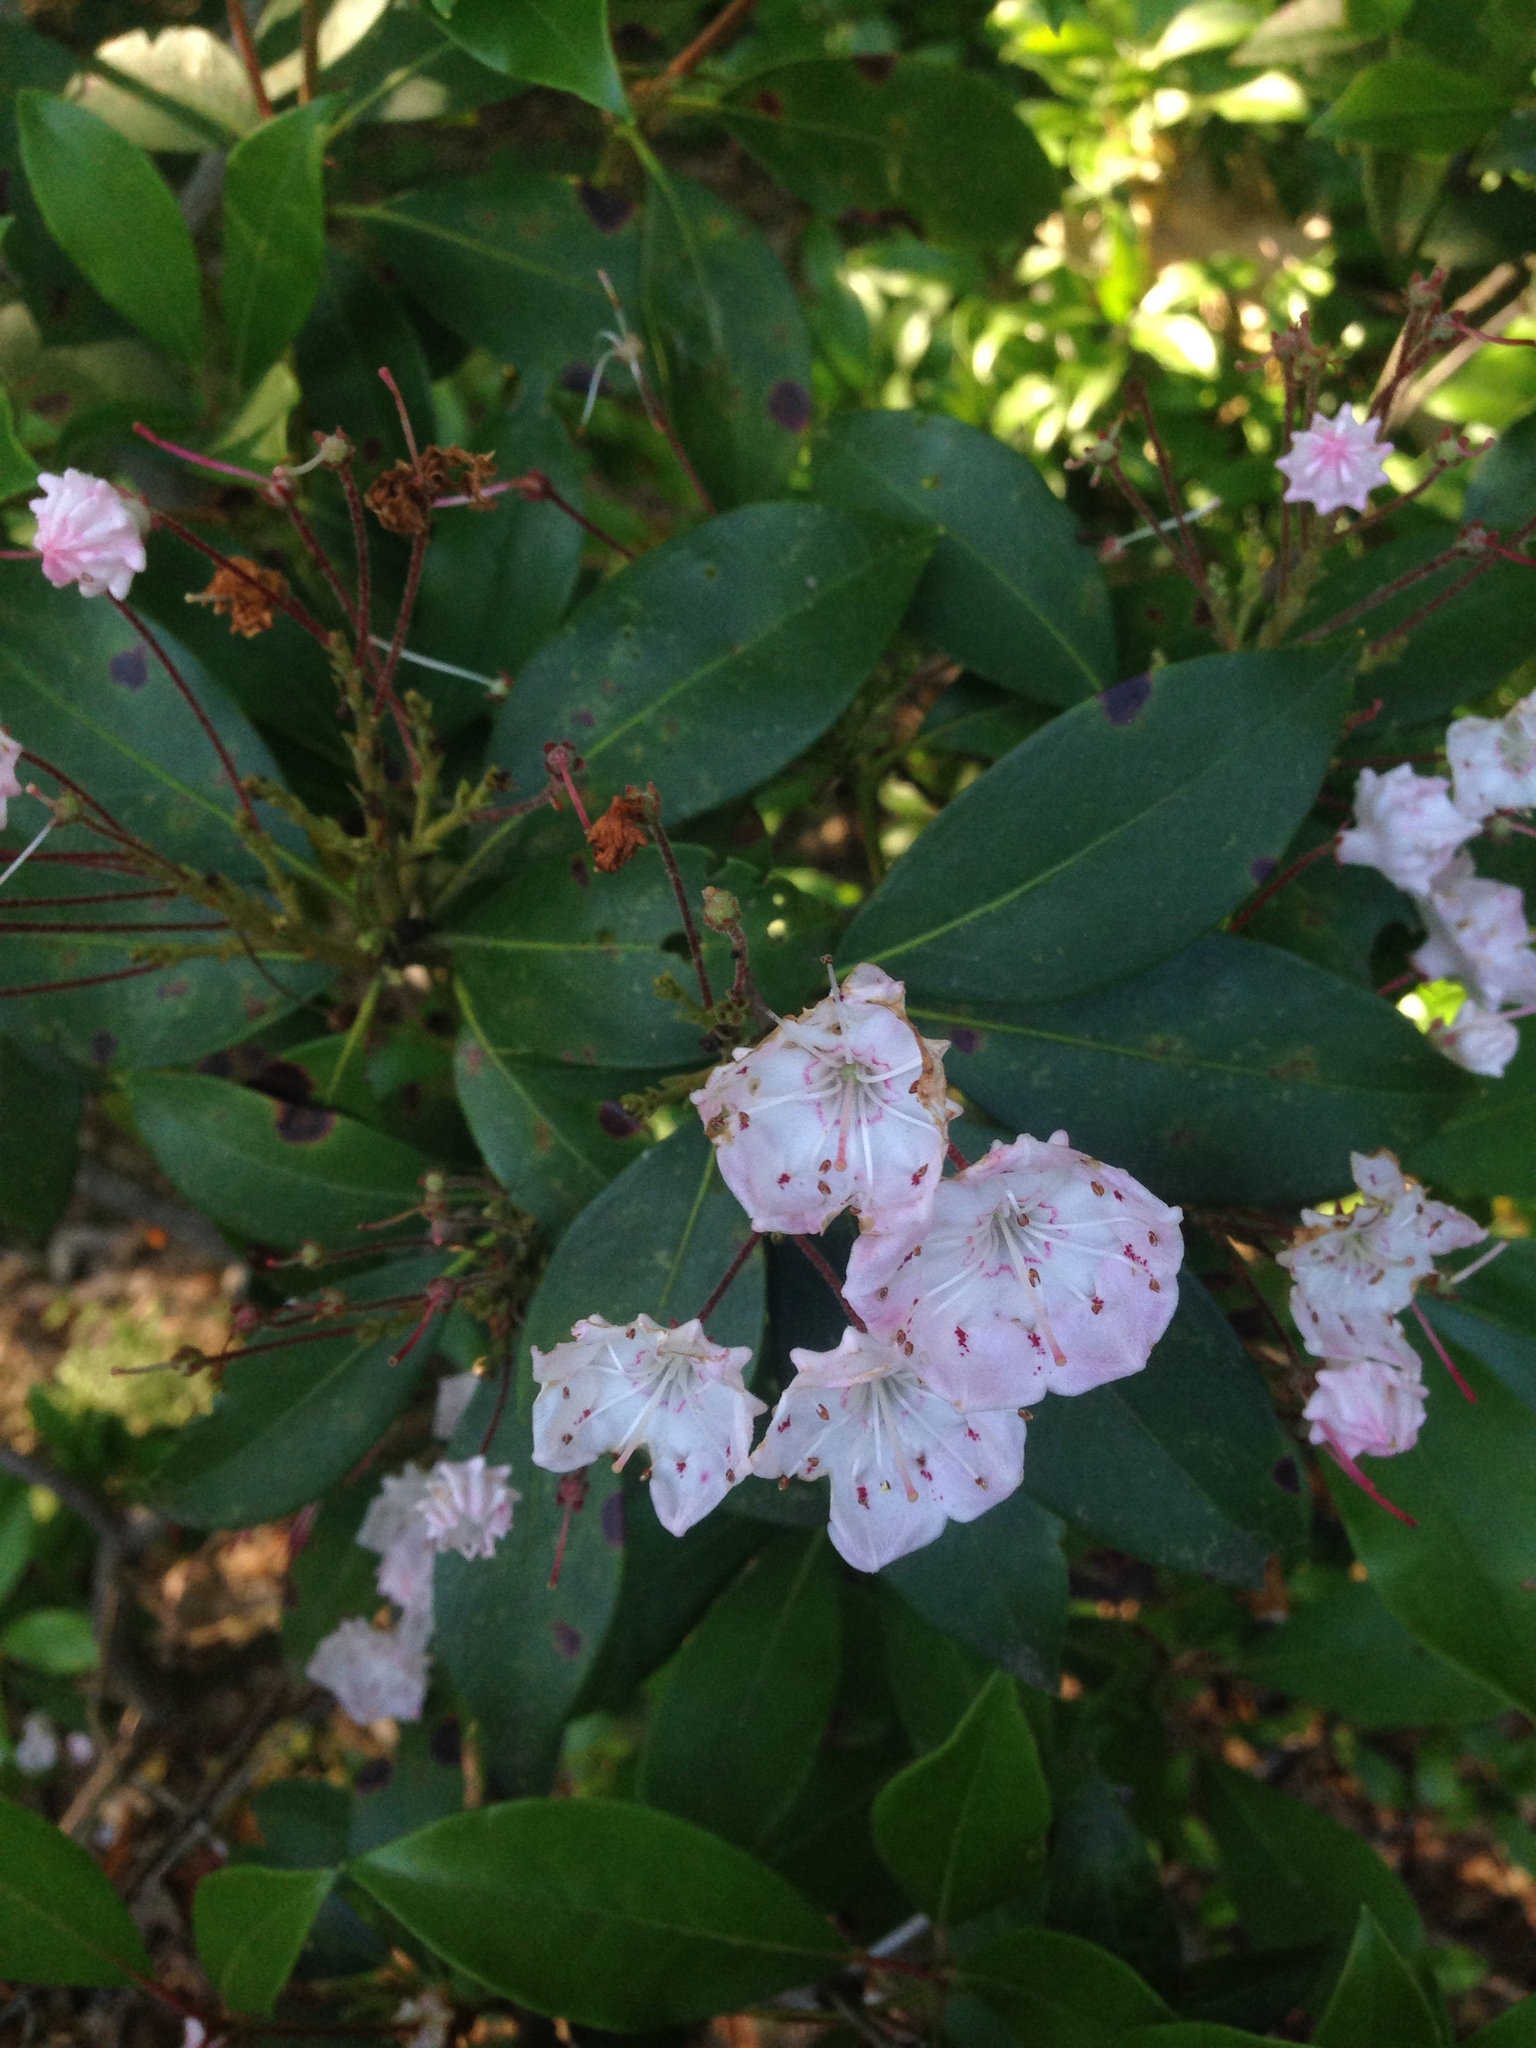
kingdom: Plantae
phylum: Tracheophyta
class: Magnoliopsida
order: Ericales
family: Ericaceae
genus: Kalmia
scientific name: Kalmia latifolia
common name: Mountain-laurel
